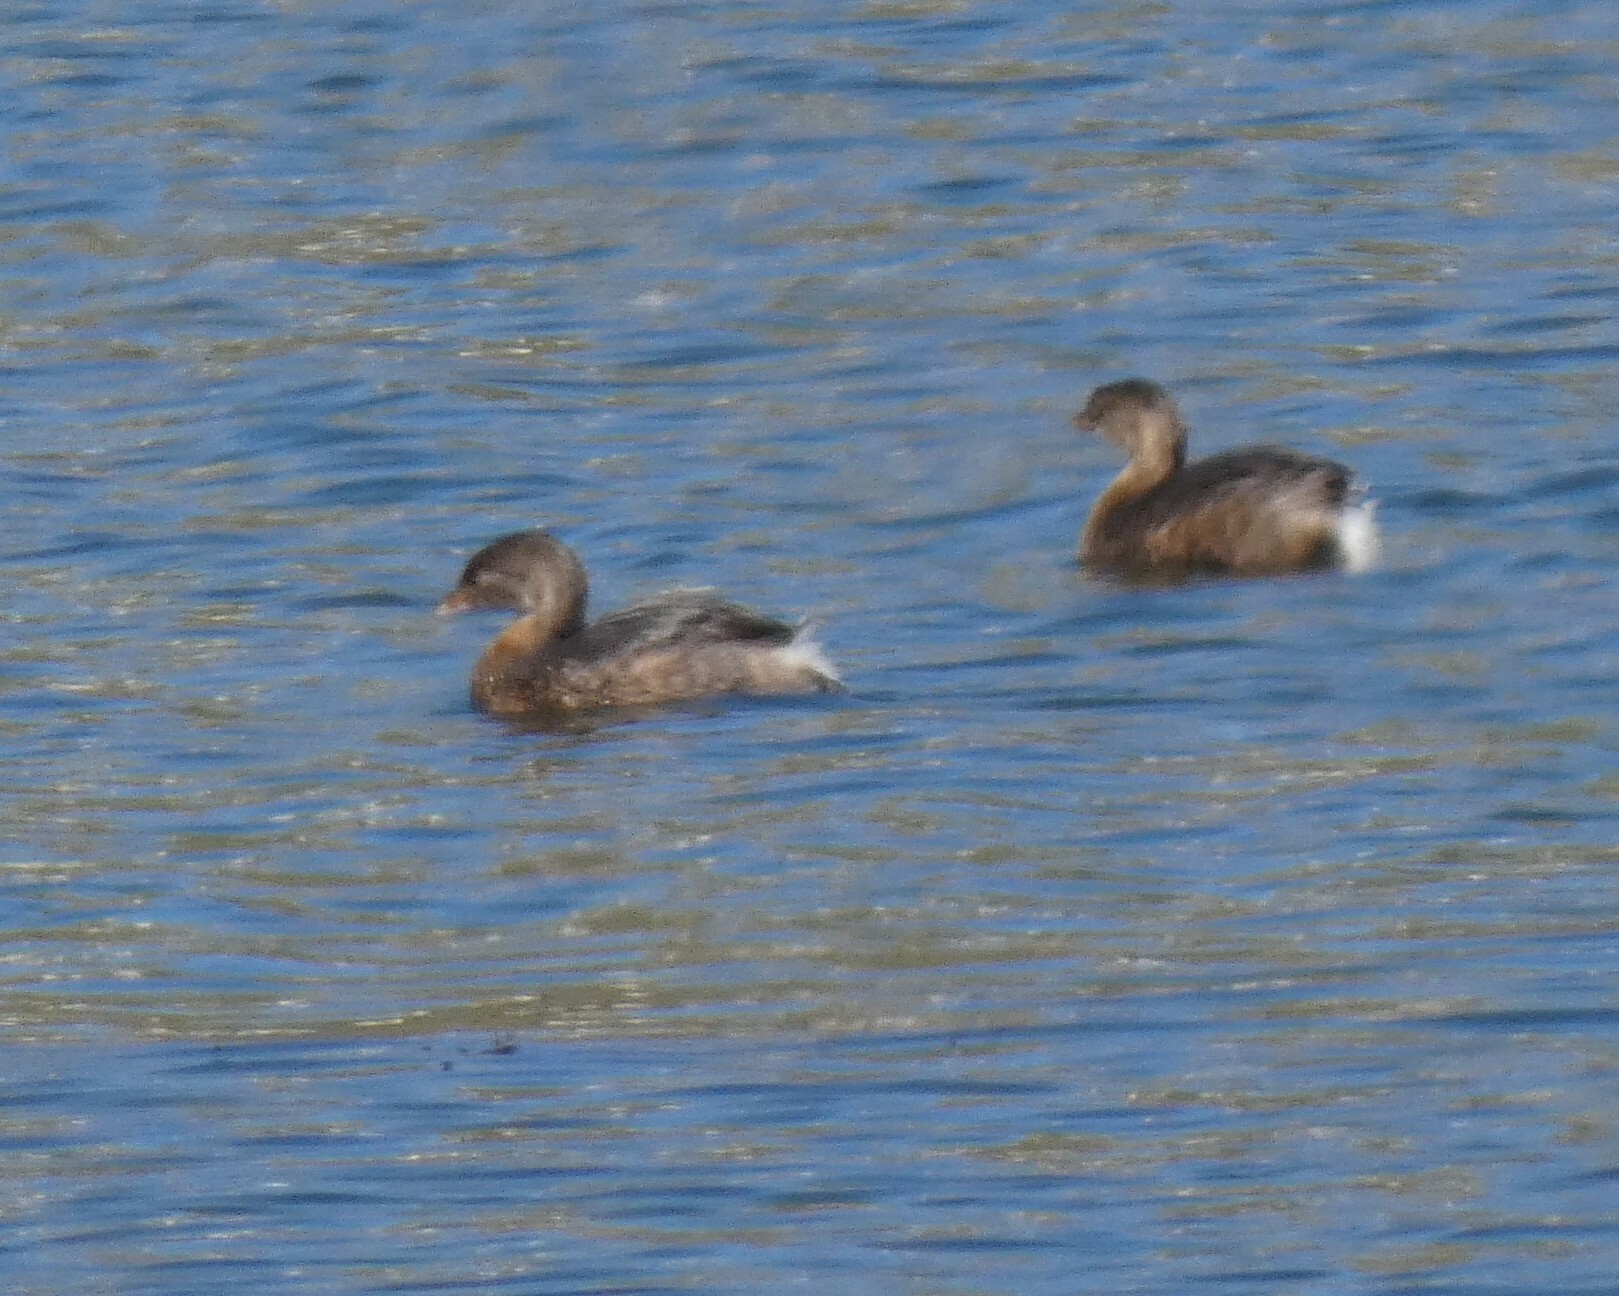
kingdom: Animalia
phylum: Chordata
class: Aves
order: Podicipediformes
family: Podicipedidae
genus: Podilymbus
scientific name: Podilymbus podiceps
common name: Pied-billed grebe
